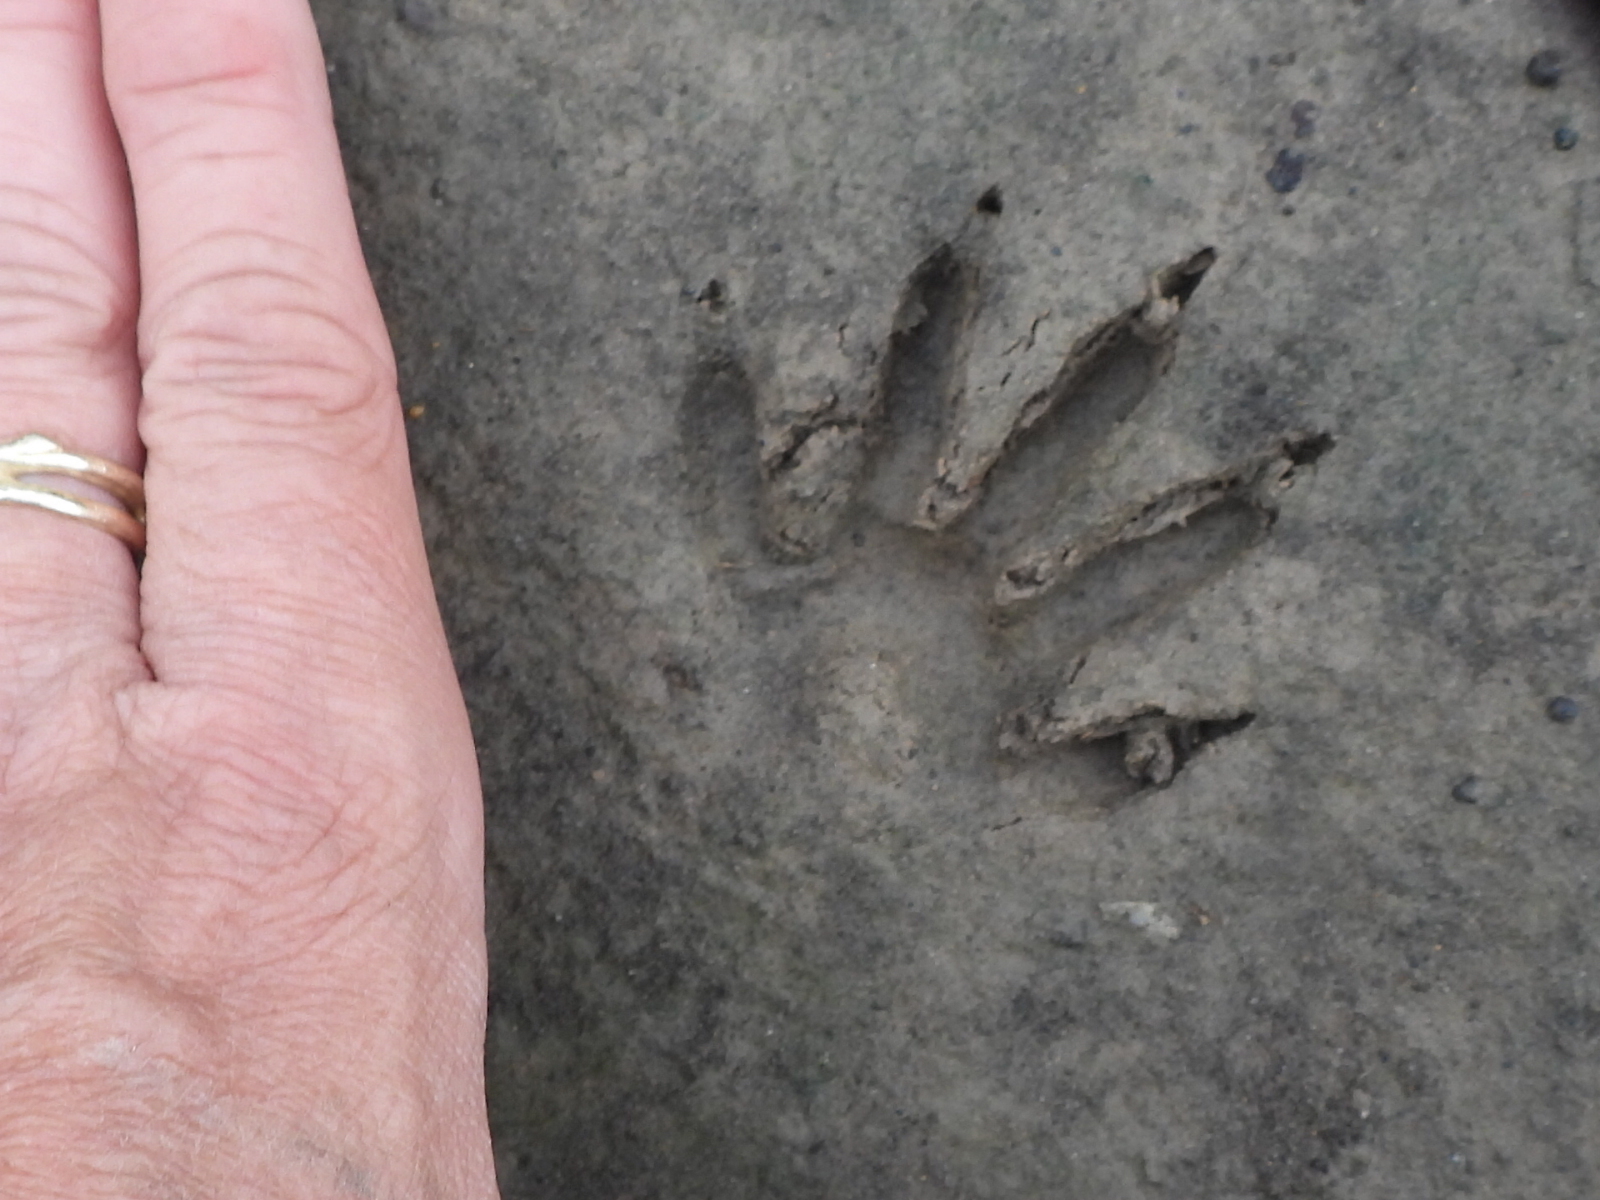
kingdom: Animalia
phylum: Chordata
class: Mammalia
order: Carnivora
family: Procyonidae
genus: Procyon
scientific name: Procyon lotor
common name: Raccoon
